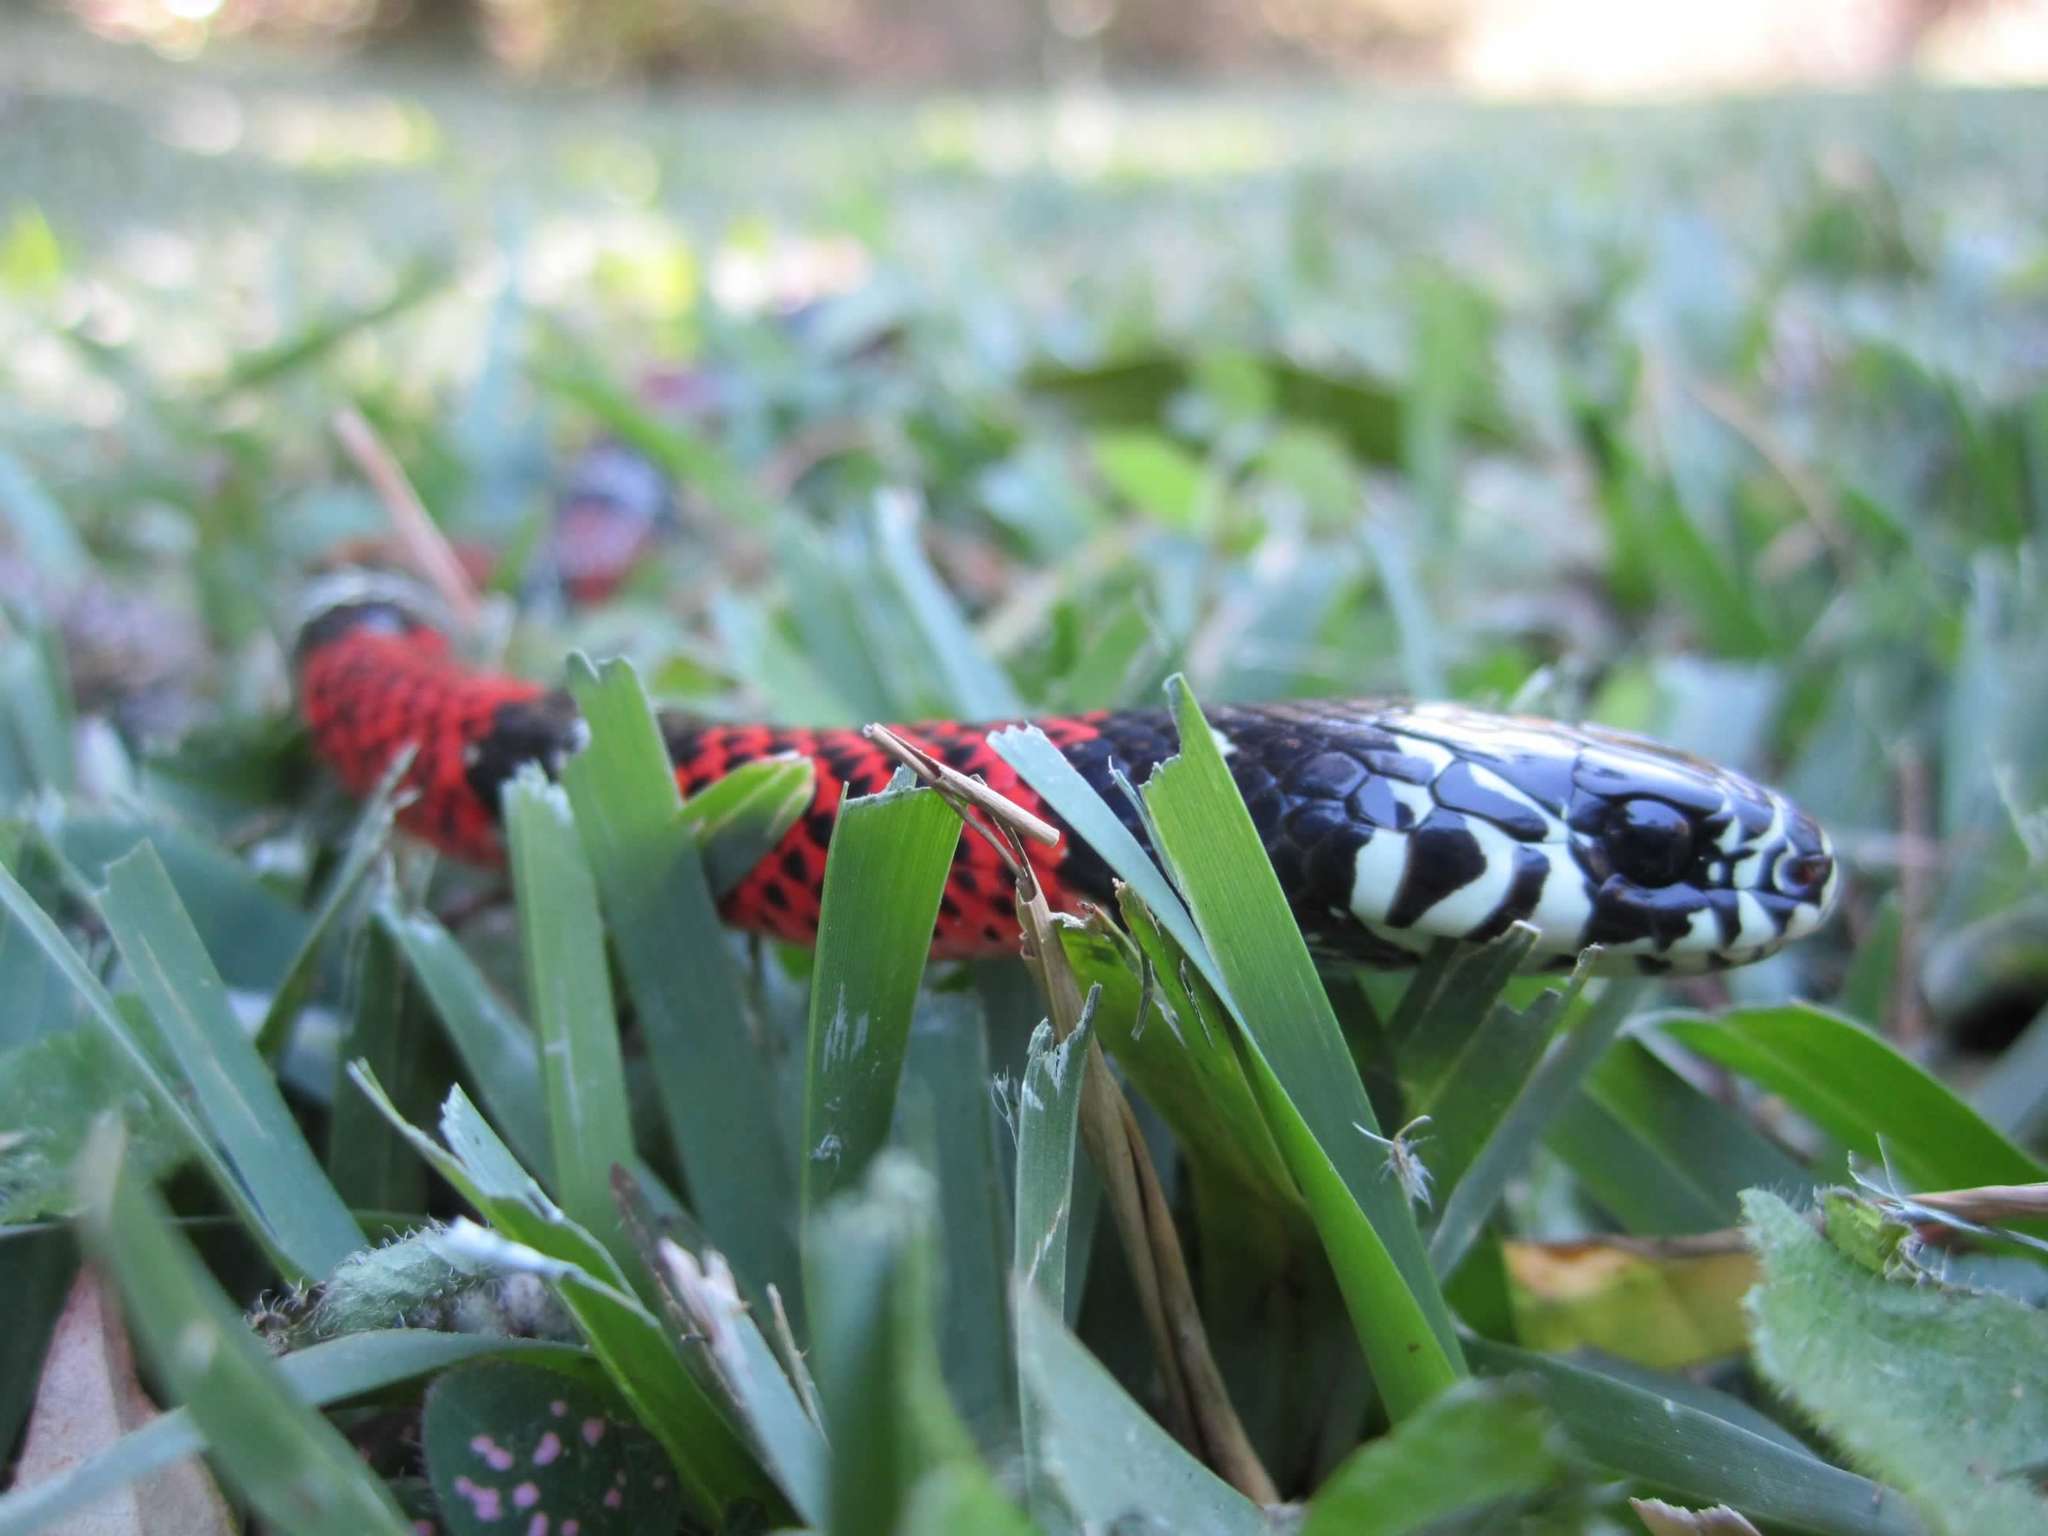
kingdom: Animalia
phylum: Chordata
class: Squamata
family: Colubridae
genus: Erythrolamprus
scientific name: Erythrolamprus bizona
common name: Double-banded coral snake mimic
